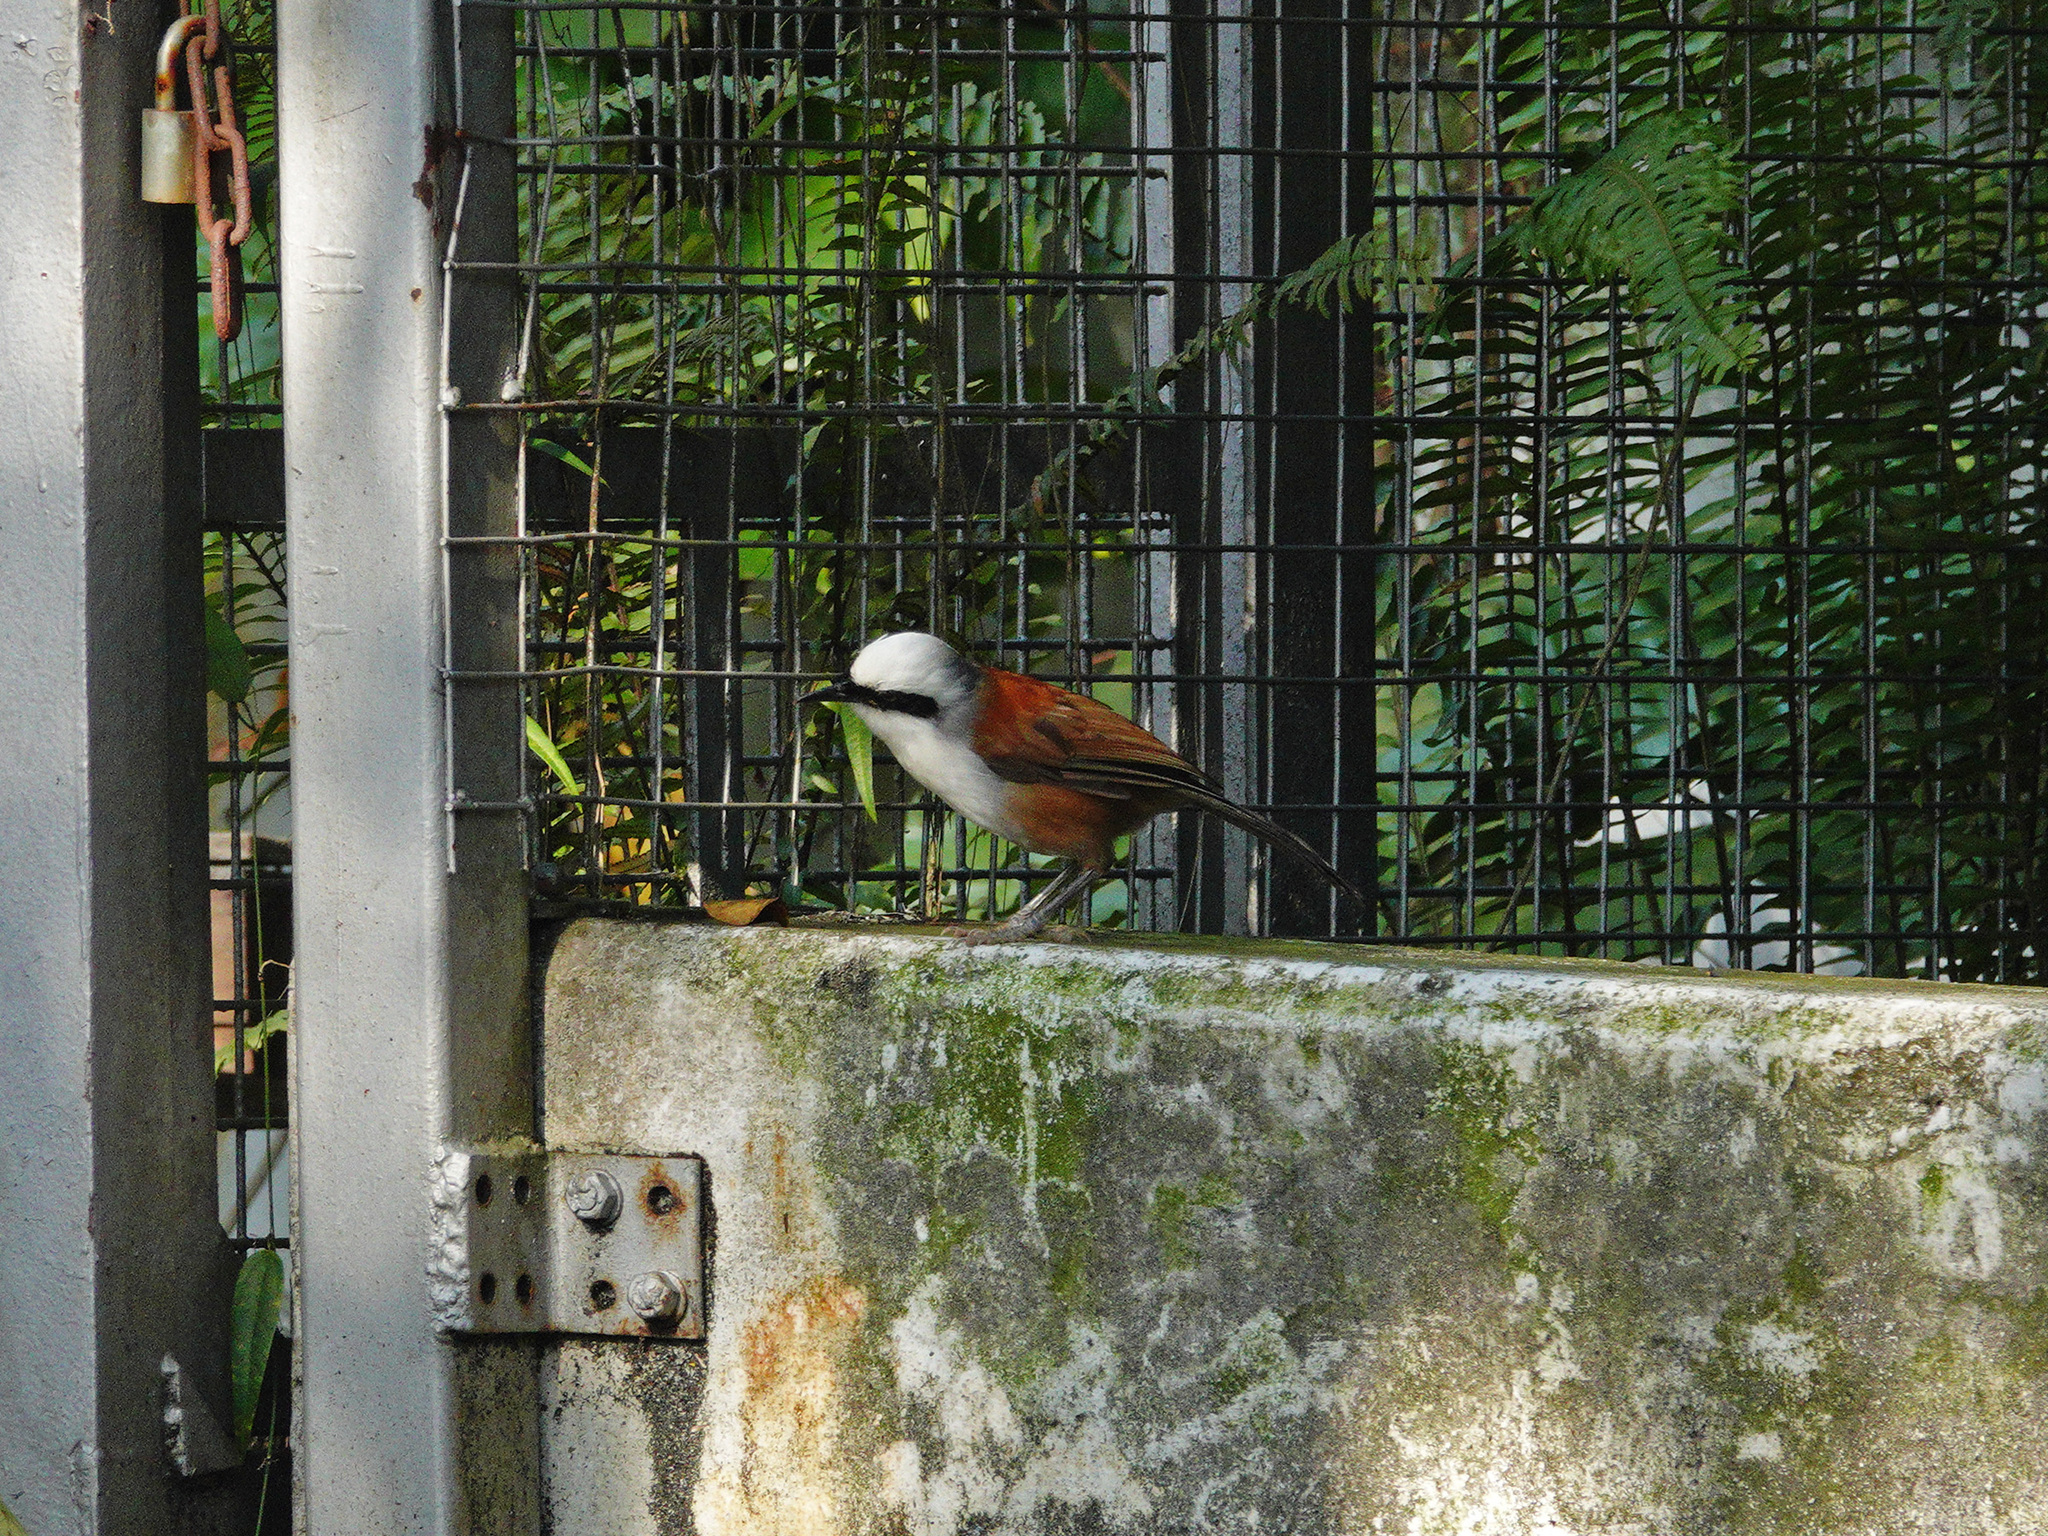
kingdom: Animalia
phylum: Chordata
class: Aves
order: Passeriformes
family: Leiothrichidae
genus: Garrulax
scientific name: Garrulax leucolophus
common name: White-crested laughingthrush
